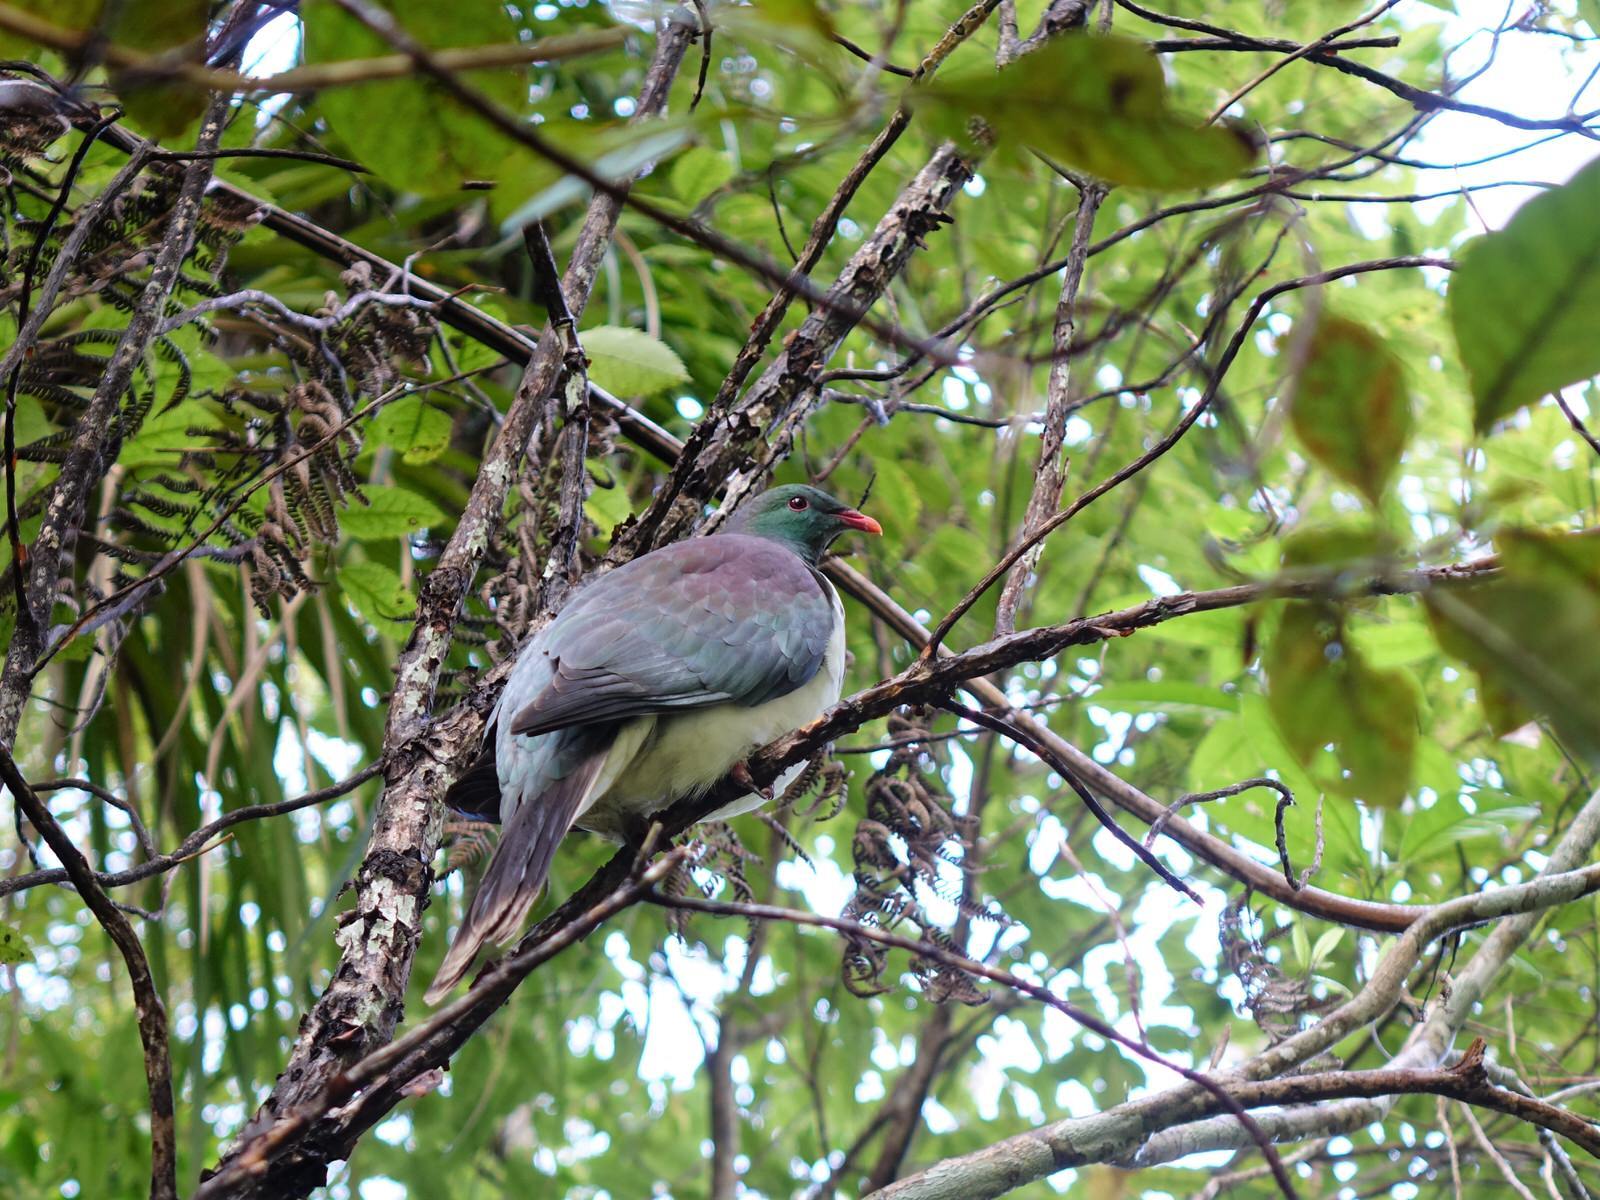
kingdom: Animalia
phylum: Chordata
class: Aves
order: Columbiformes
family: Columbidae
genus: Hemiphaga
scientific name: Hemiphaga novaeseelandiae
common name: New zealand pigeon
